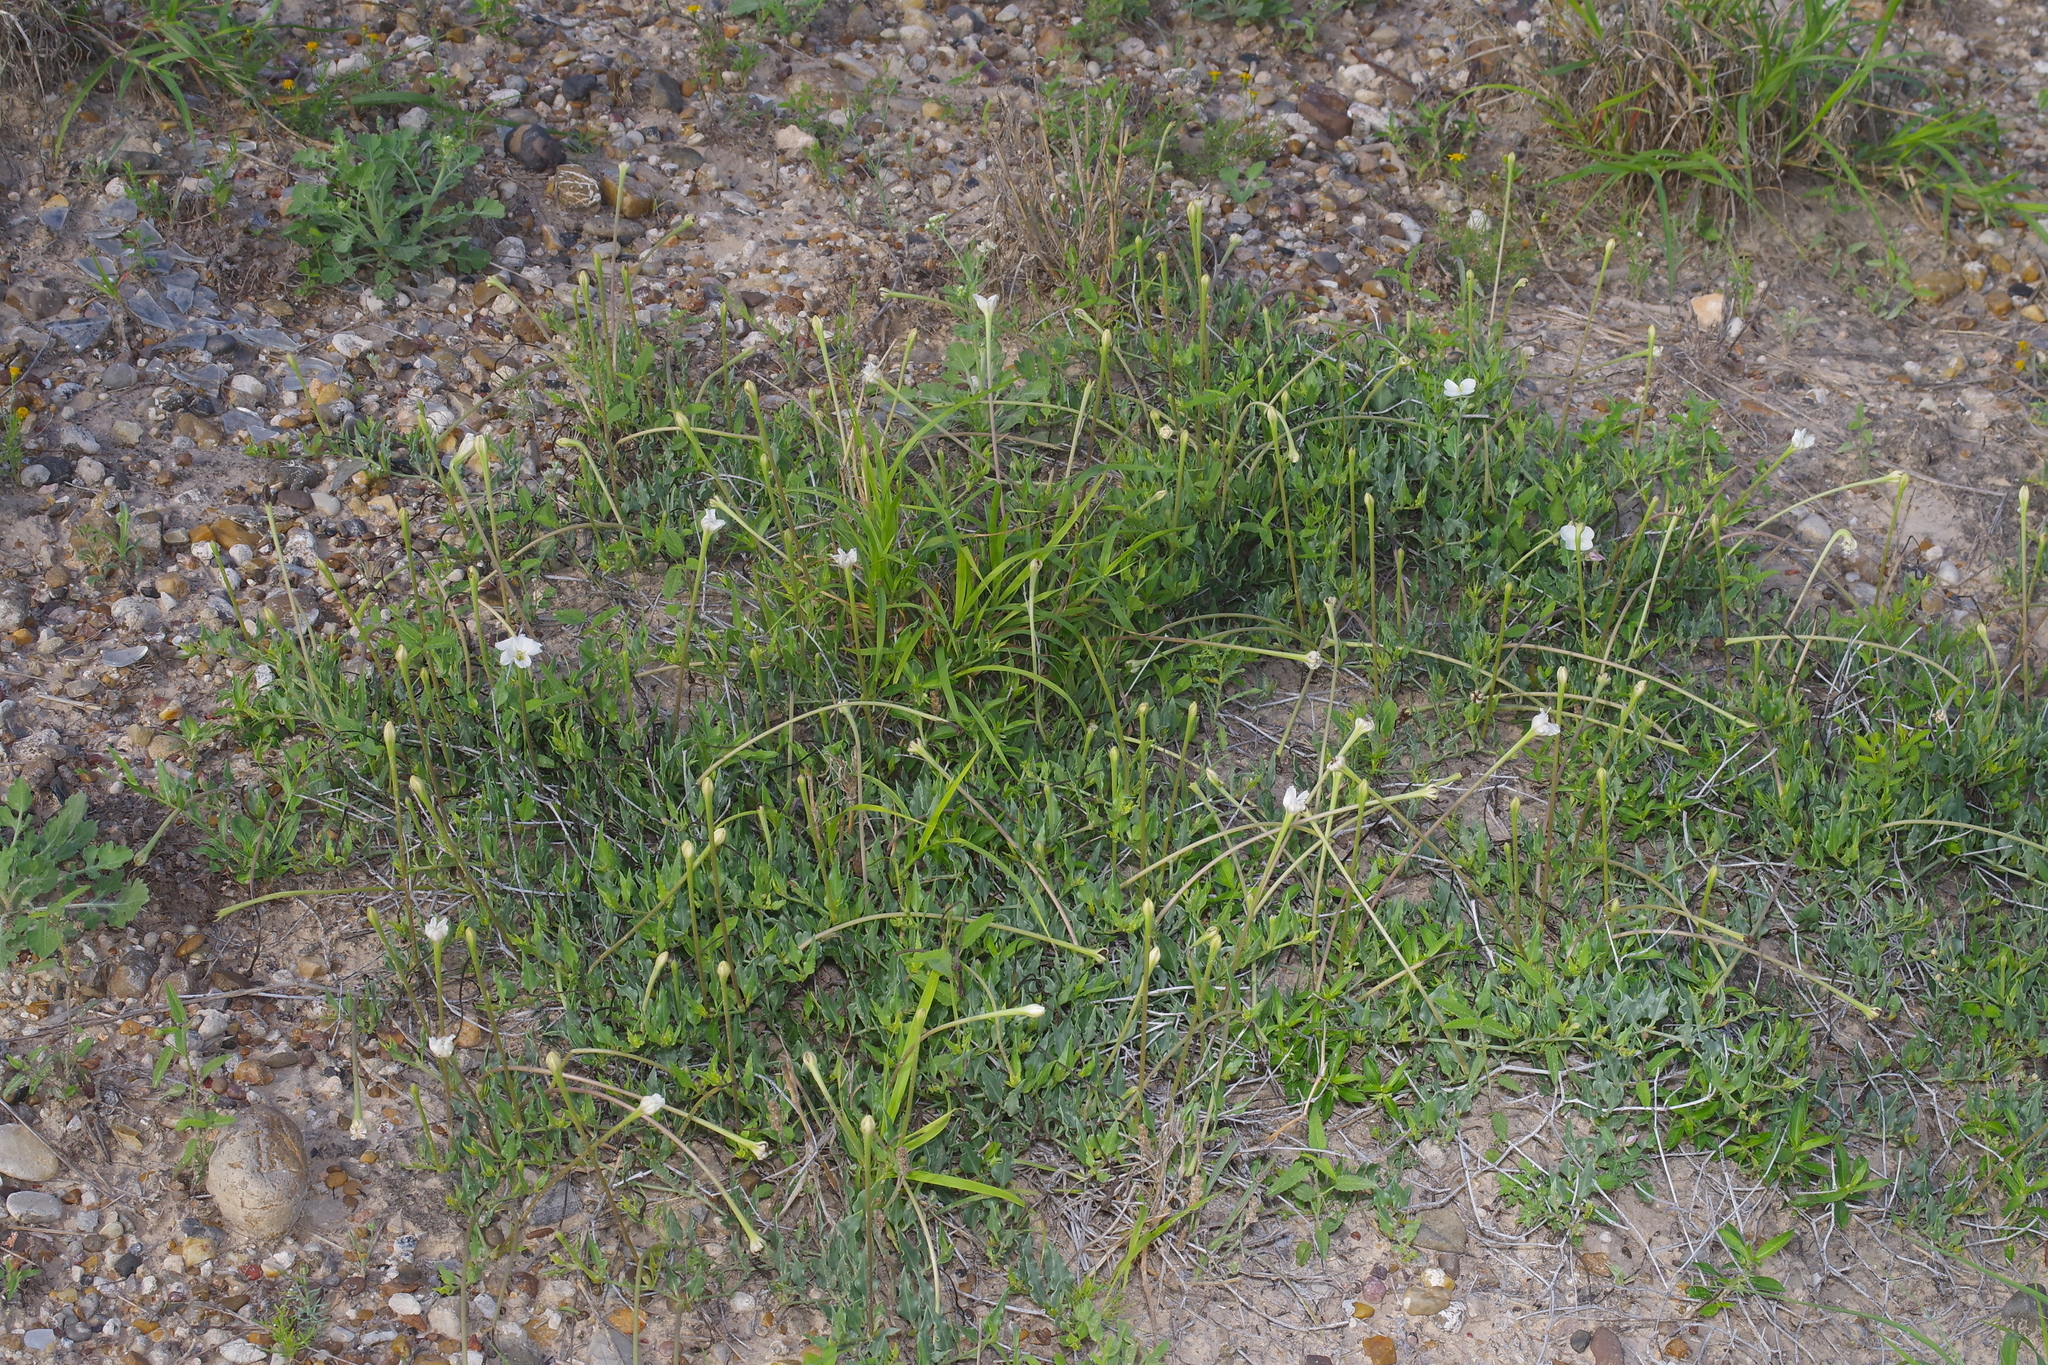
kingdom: Plantae
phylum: Tracheophyta
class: Magnoliopsida
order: Caryophyllales
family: Nyctaginaceae
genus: Acleisanthes
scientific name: Acleisanthes longiflora
